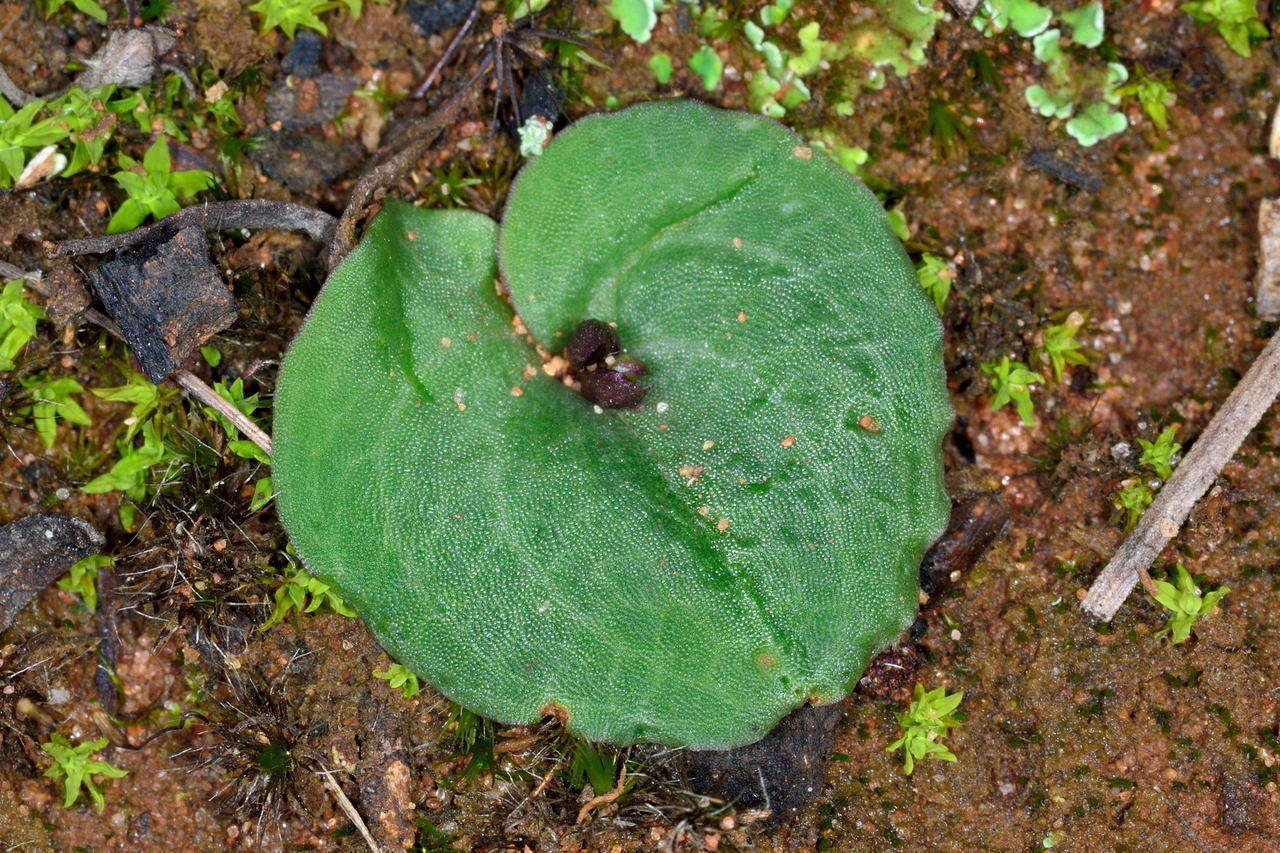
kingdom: Plantae
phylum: Tracheophyta
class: Liliopsida
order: Asparagales
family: Orchidaceae
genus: Cyrtostylis
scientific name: Cyrtostylis reniformis
